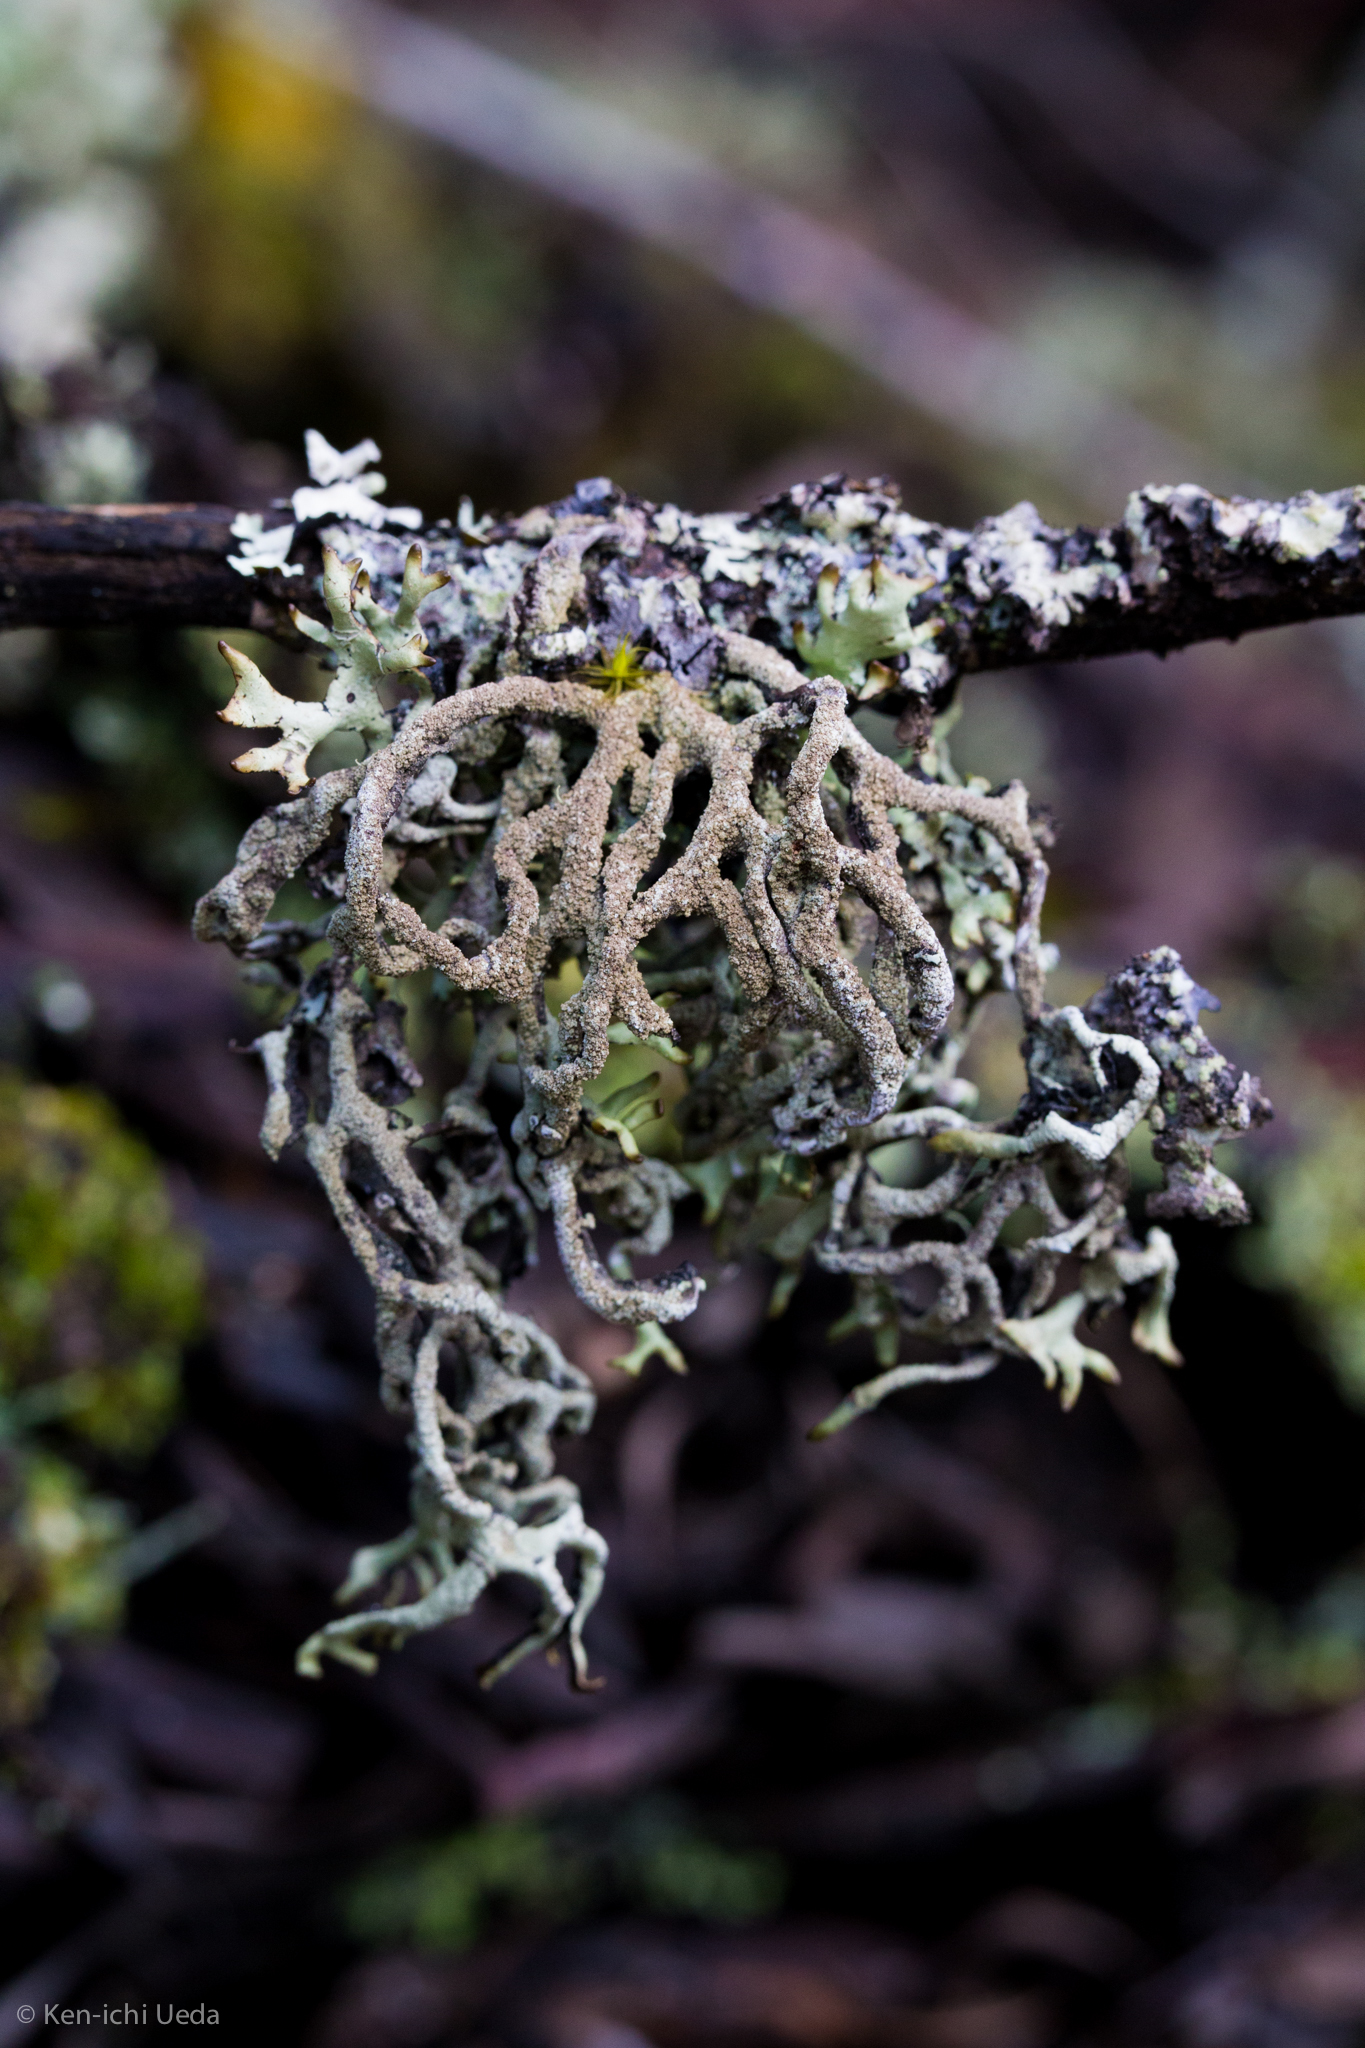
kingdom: Fungi
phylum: Ascomycota
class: Lecanoromycetes
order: Lecanorales
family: Parmeliaceae
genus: Hypogymnia
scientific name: Hypogymnia schizidiata
